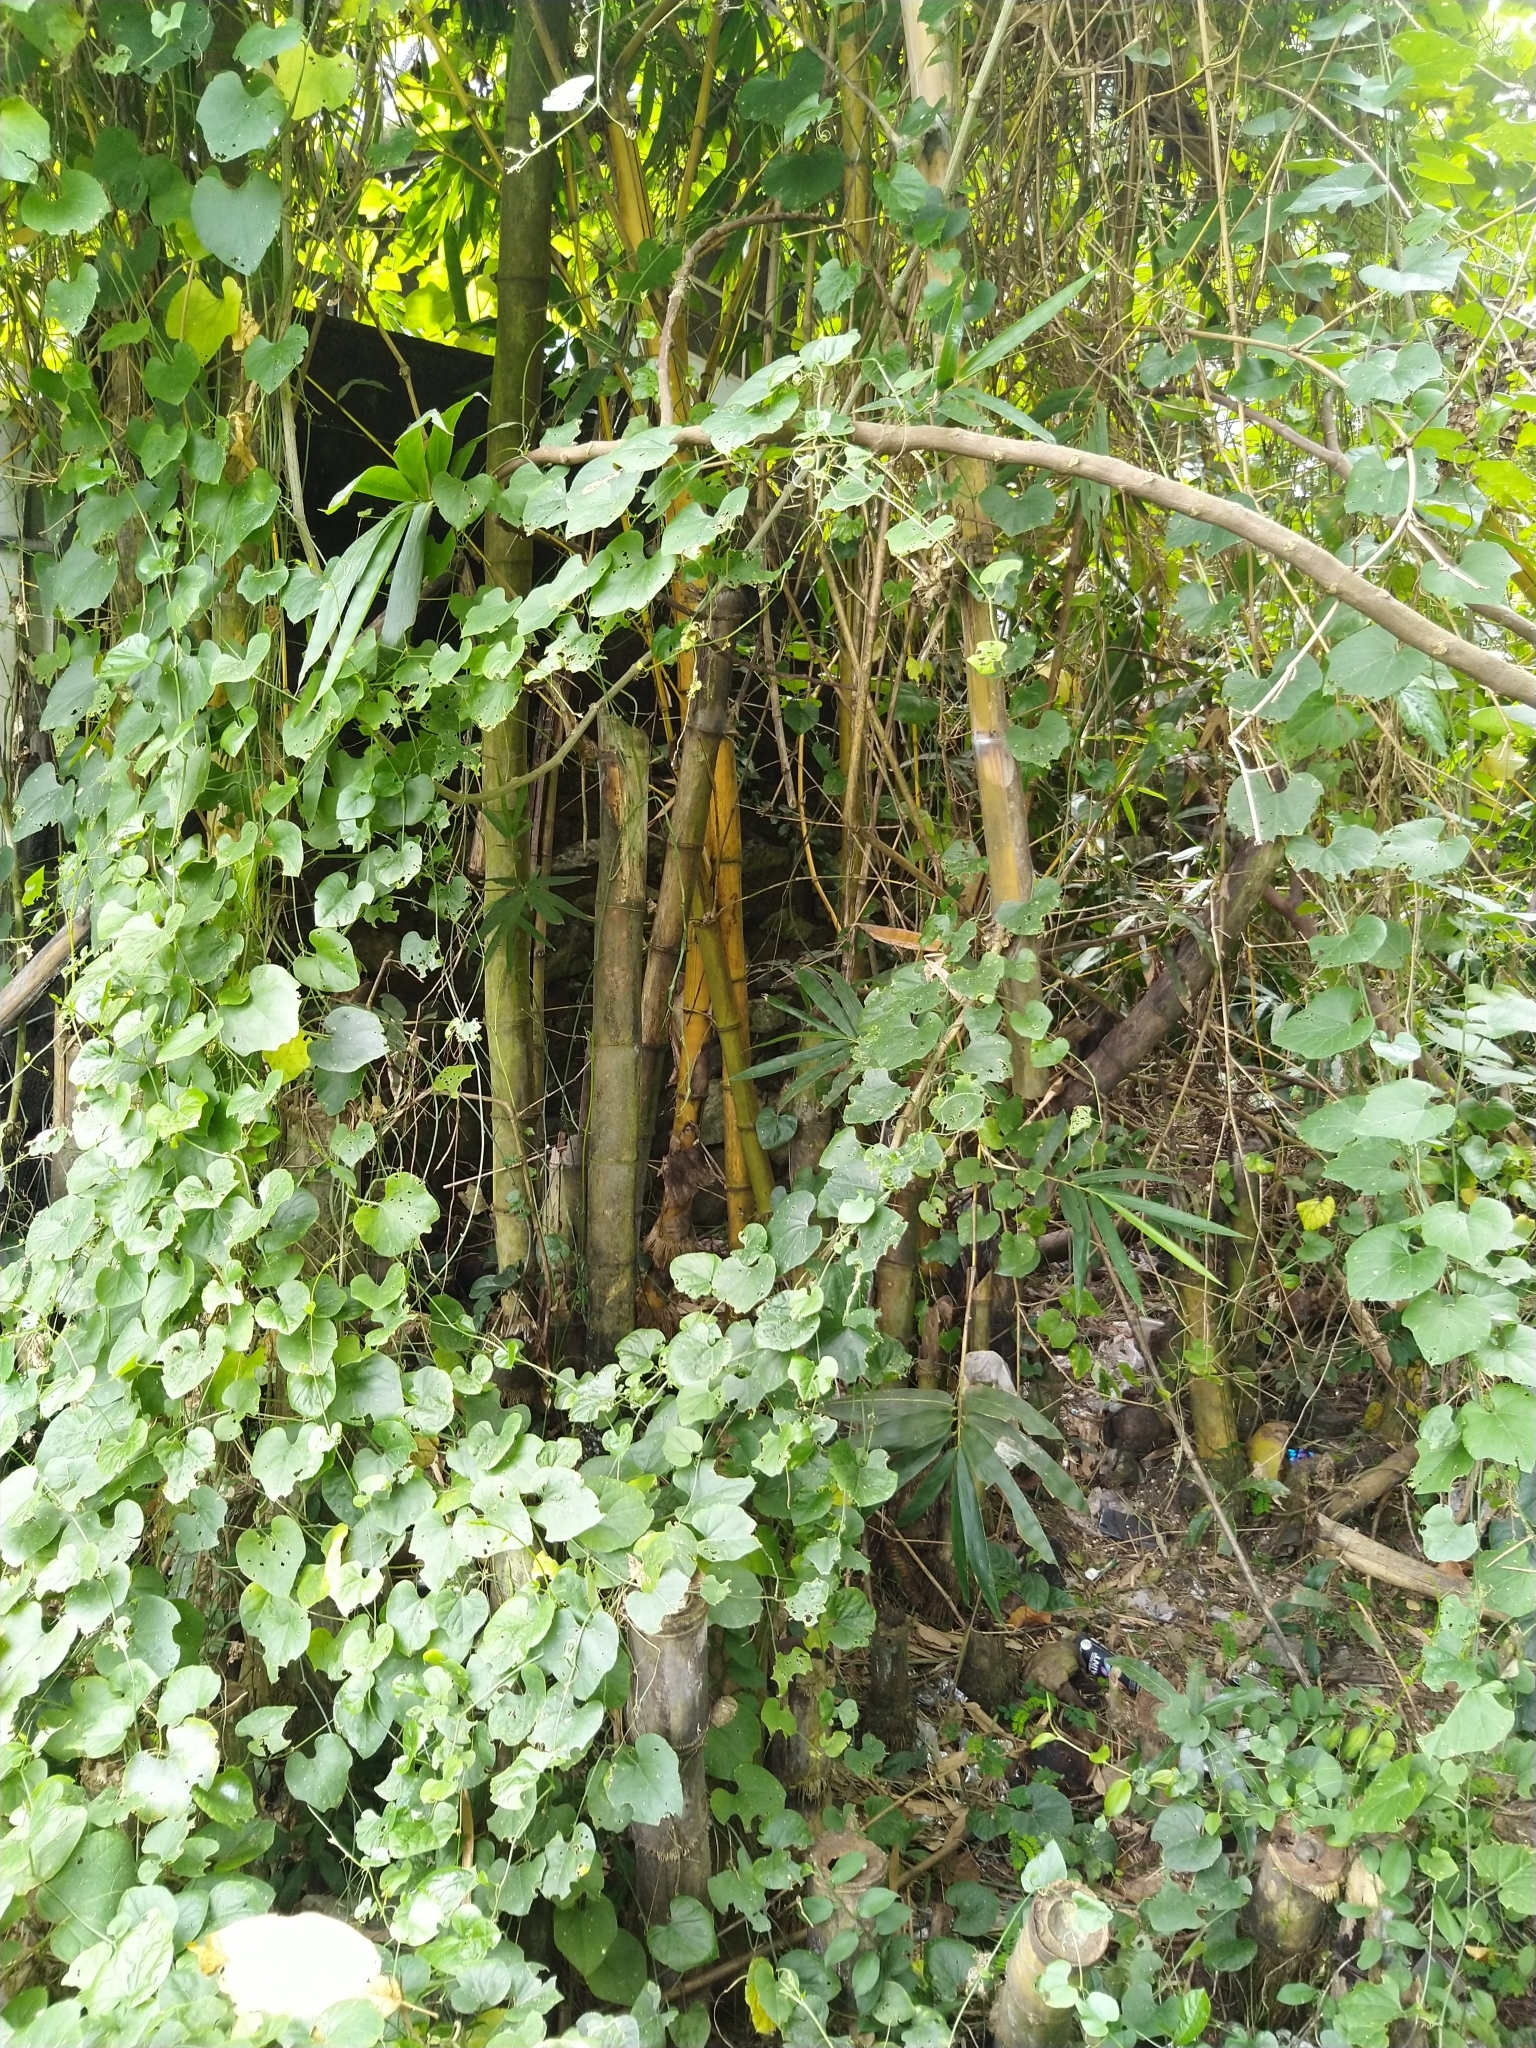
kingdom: Plantae
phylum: Tracheophyta
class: Liliopsida
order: Poales
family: Poaceae
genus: Bambusa
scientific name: Bambusa vulgaris
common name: Common bamboo
